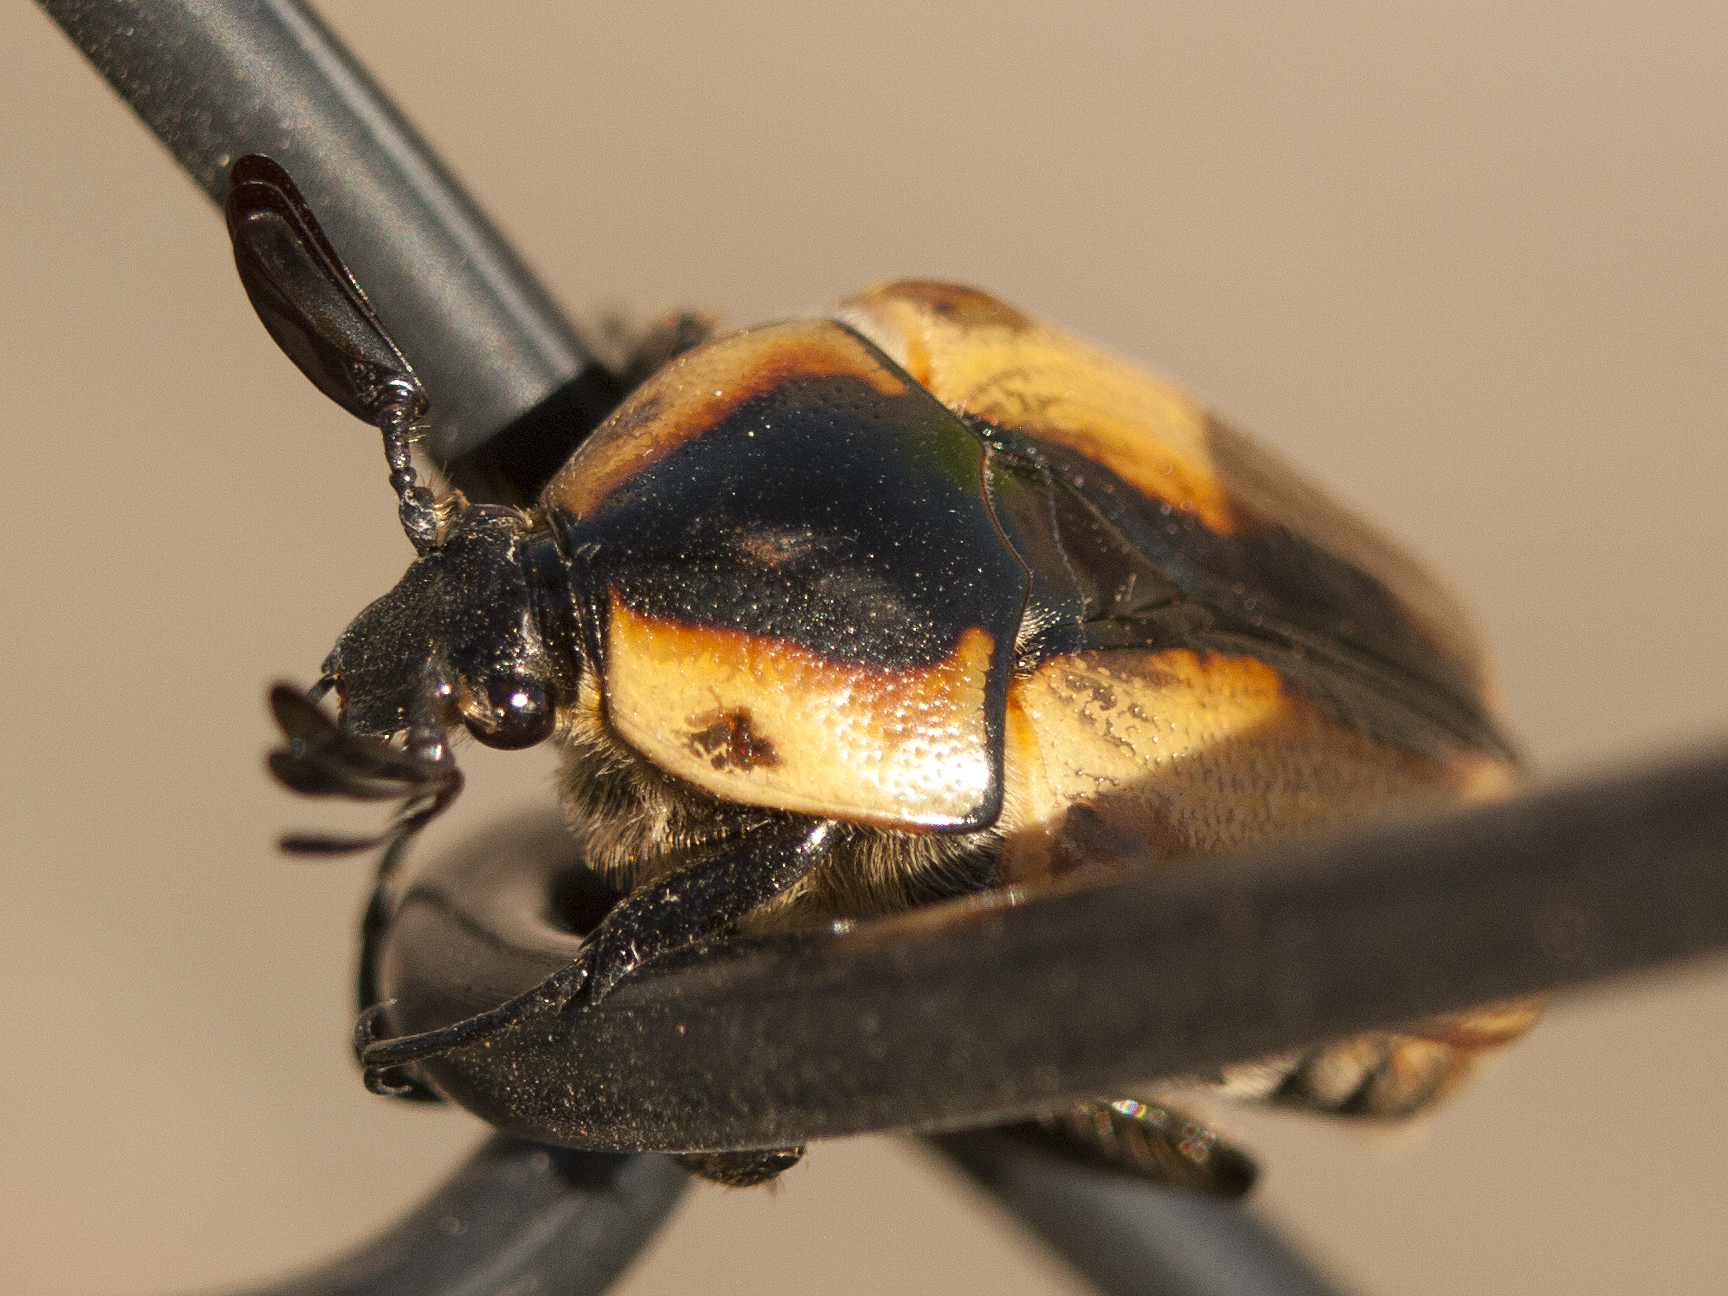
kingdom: Animalia
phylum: Arthropoda
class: Insecta
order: Coleoptera
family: Scarabaeidae
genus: Chondropyga
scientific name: Chondropyga dorsalis
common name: Cowboy beetle
